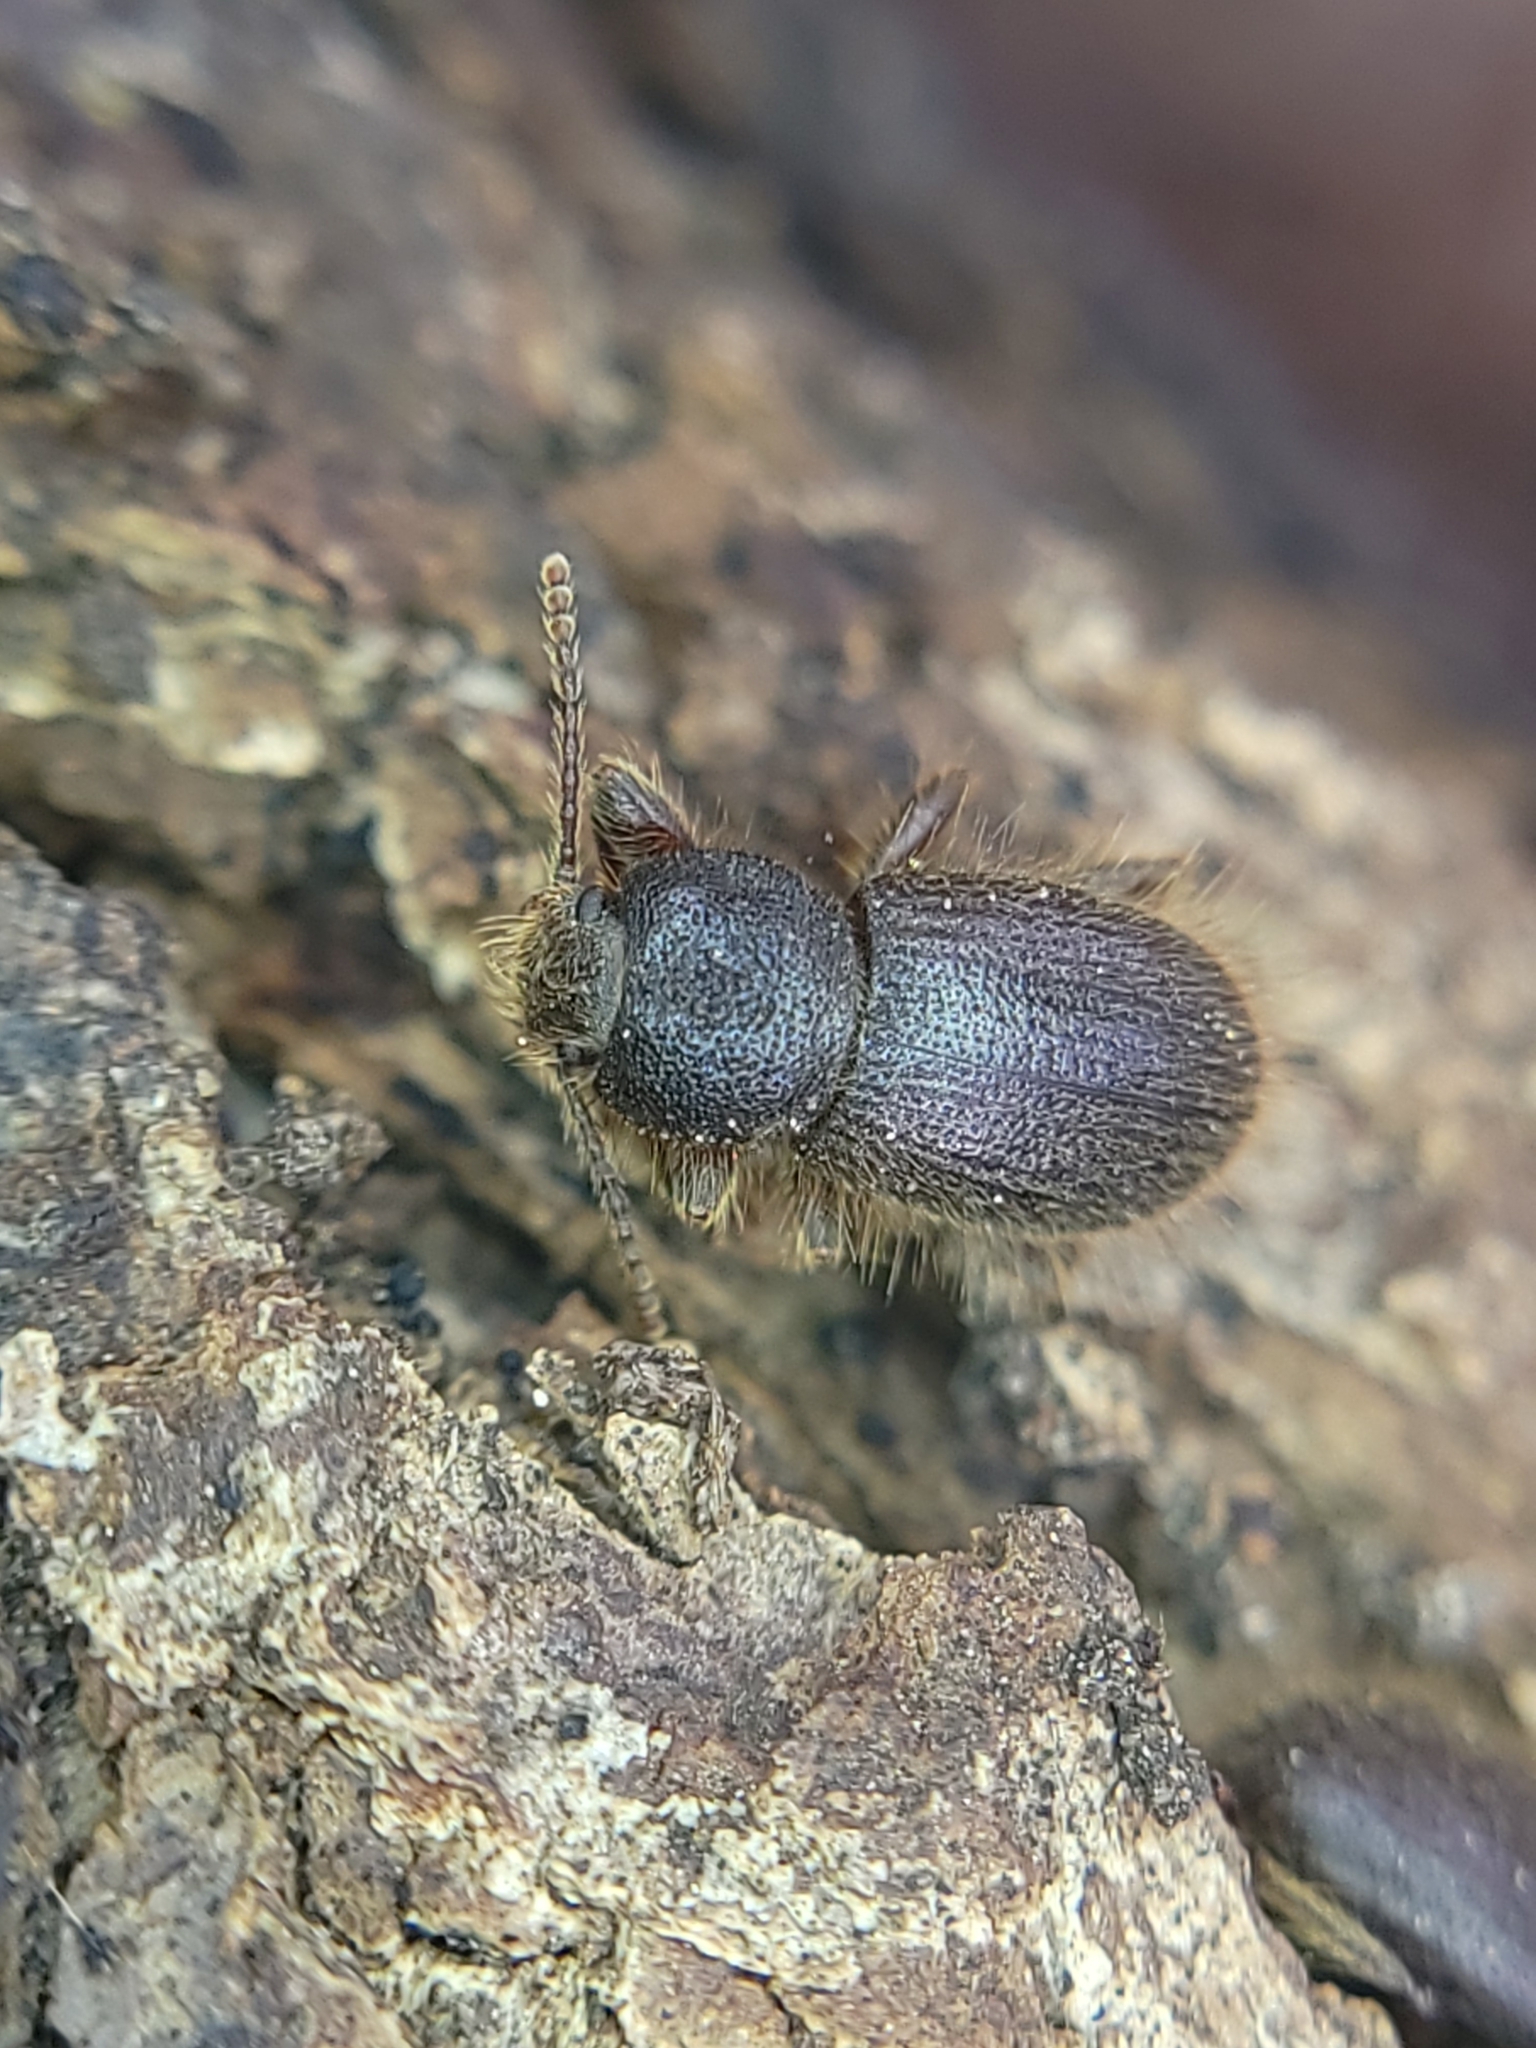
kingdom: Animalia
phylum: Arthropoda
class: Insecta
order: Coleoptera
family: Tenebrionidae
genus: Eleodes
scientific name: Eleodes littoralis
